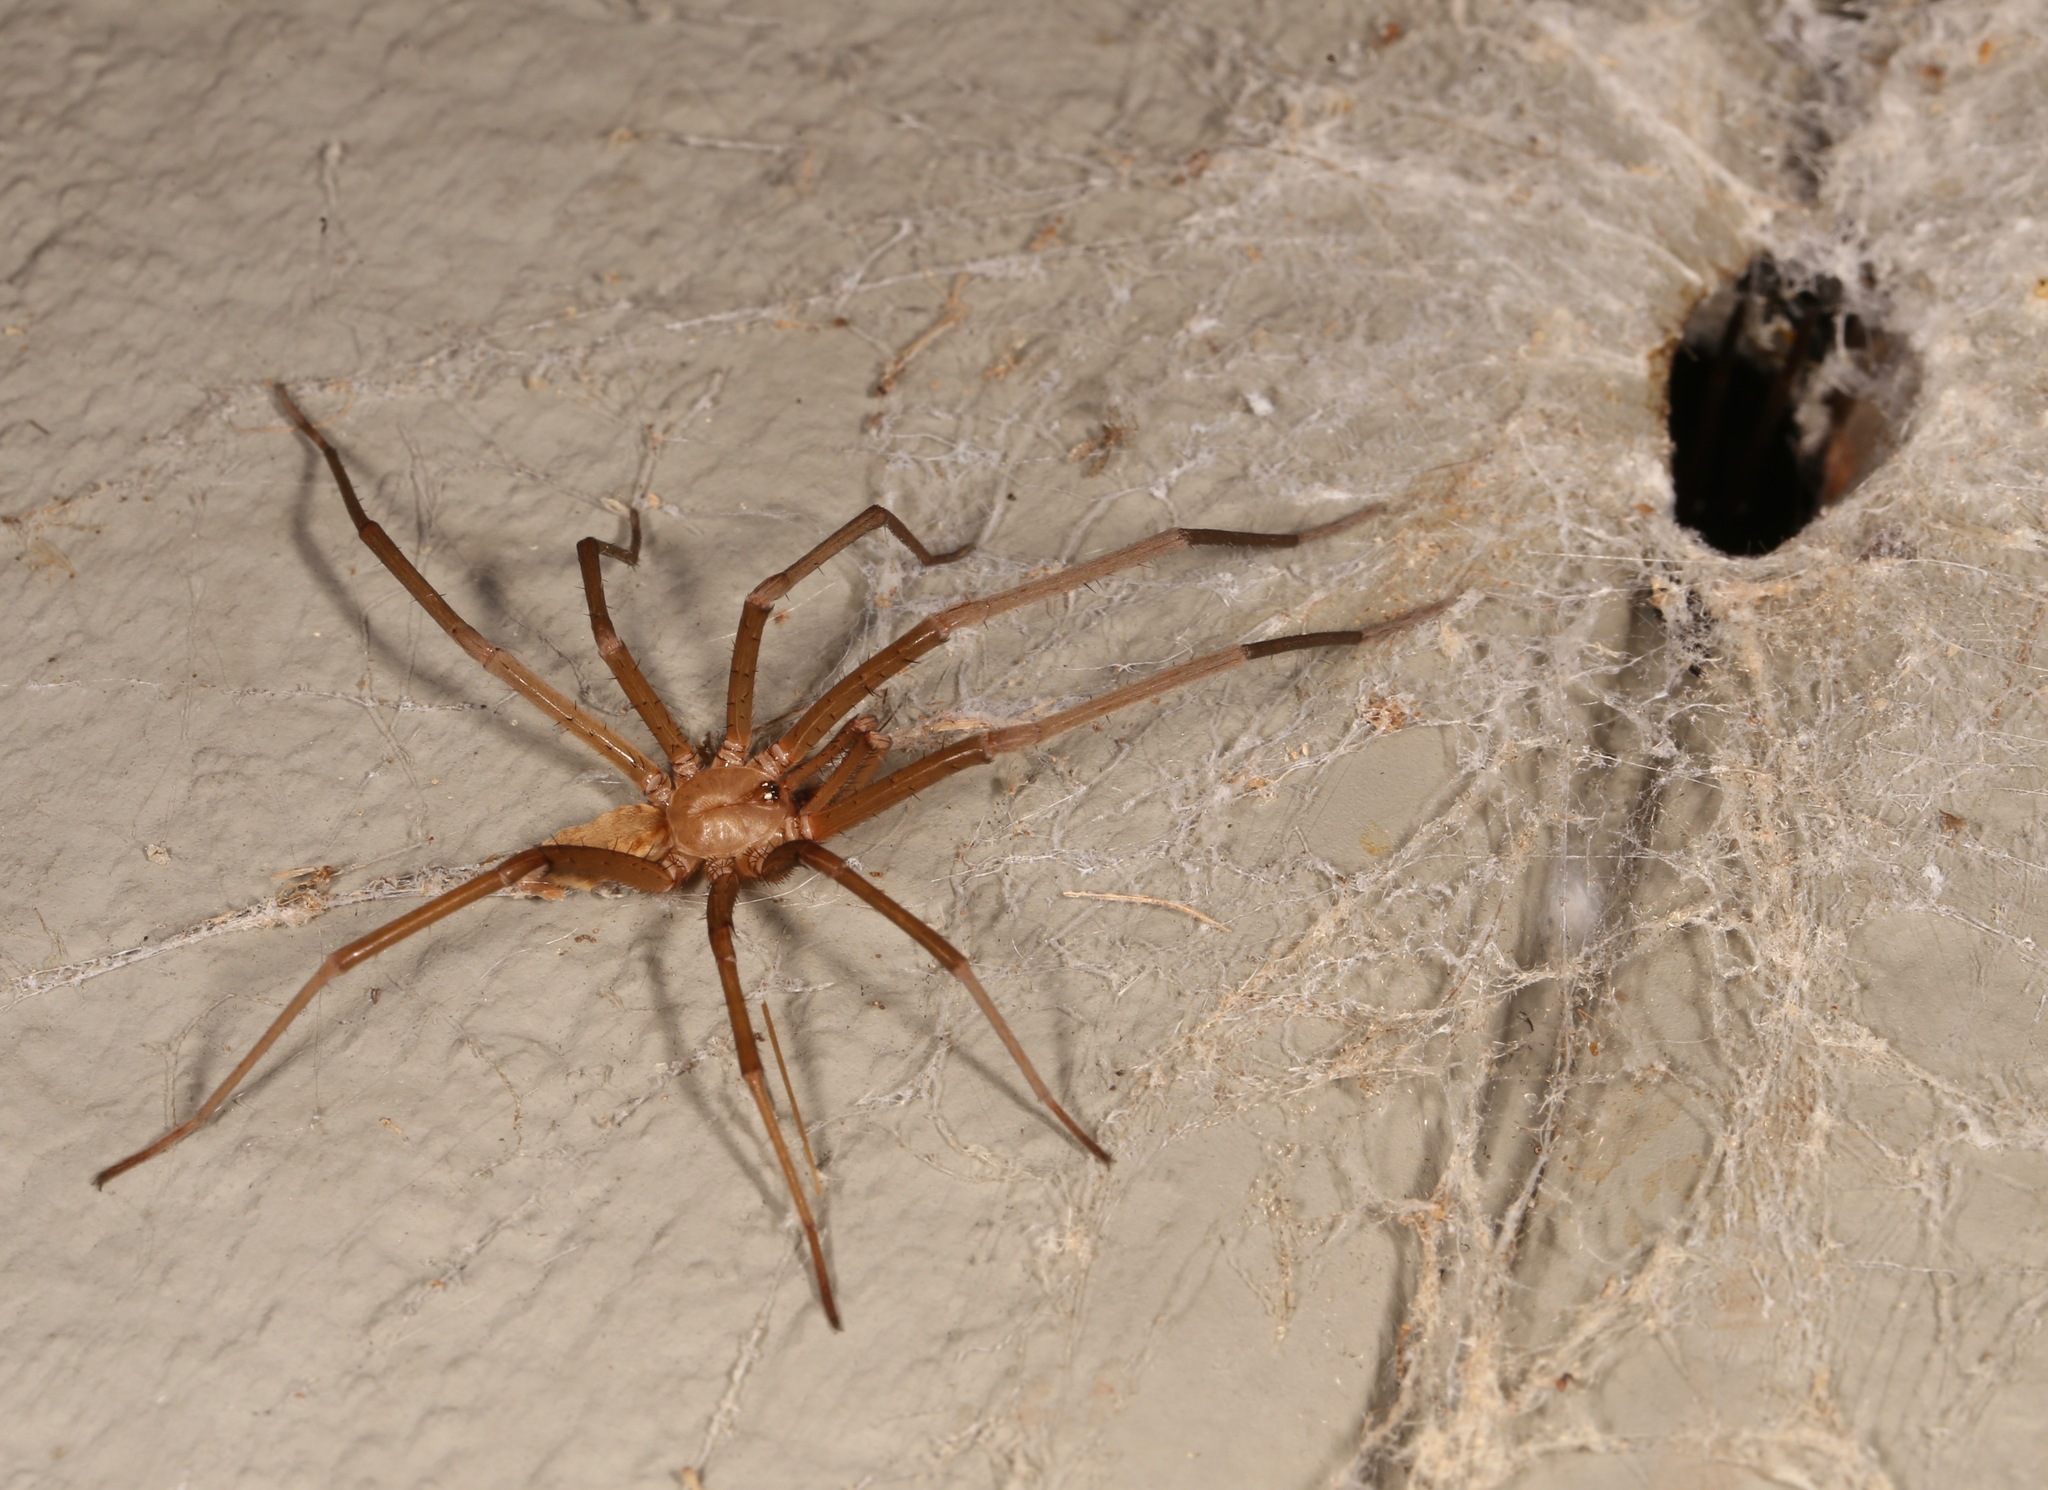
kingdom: Animalia
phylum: Arthropoda
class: Arachnida
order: Araneae
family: Filistatidae
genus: Kukulcania
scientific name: Kukulcania hibernalis
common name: Crevice weaver
